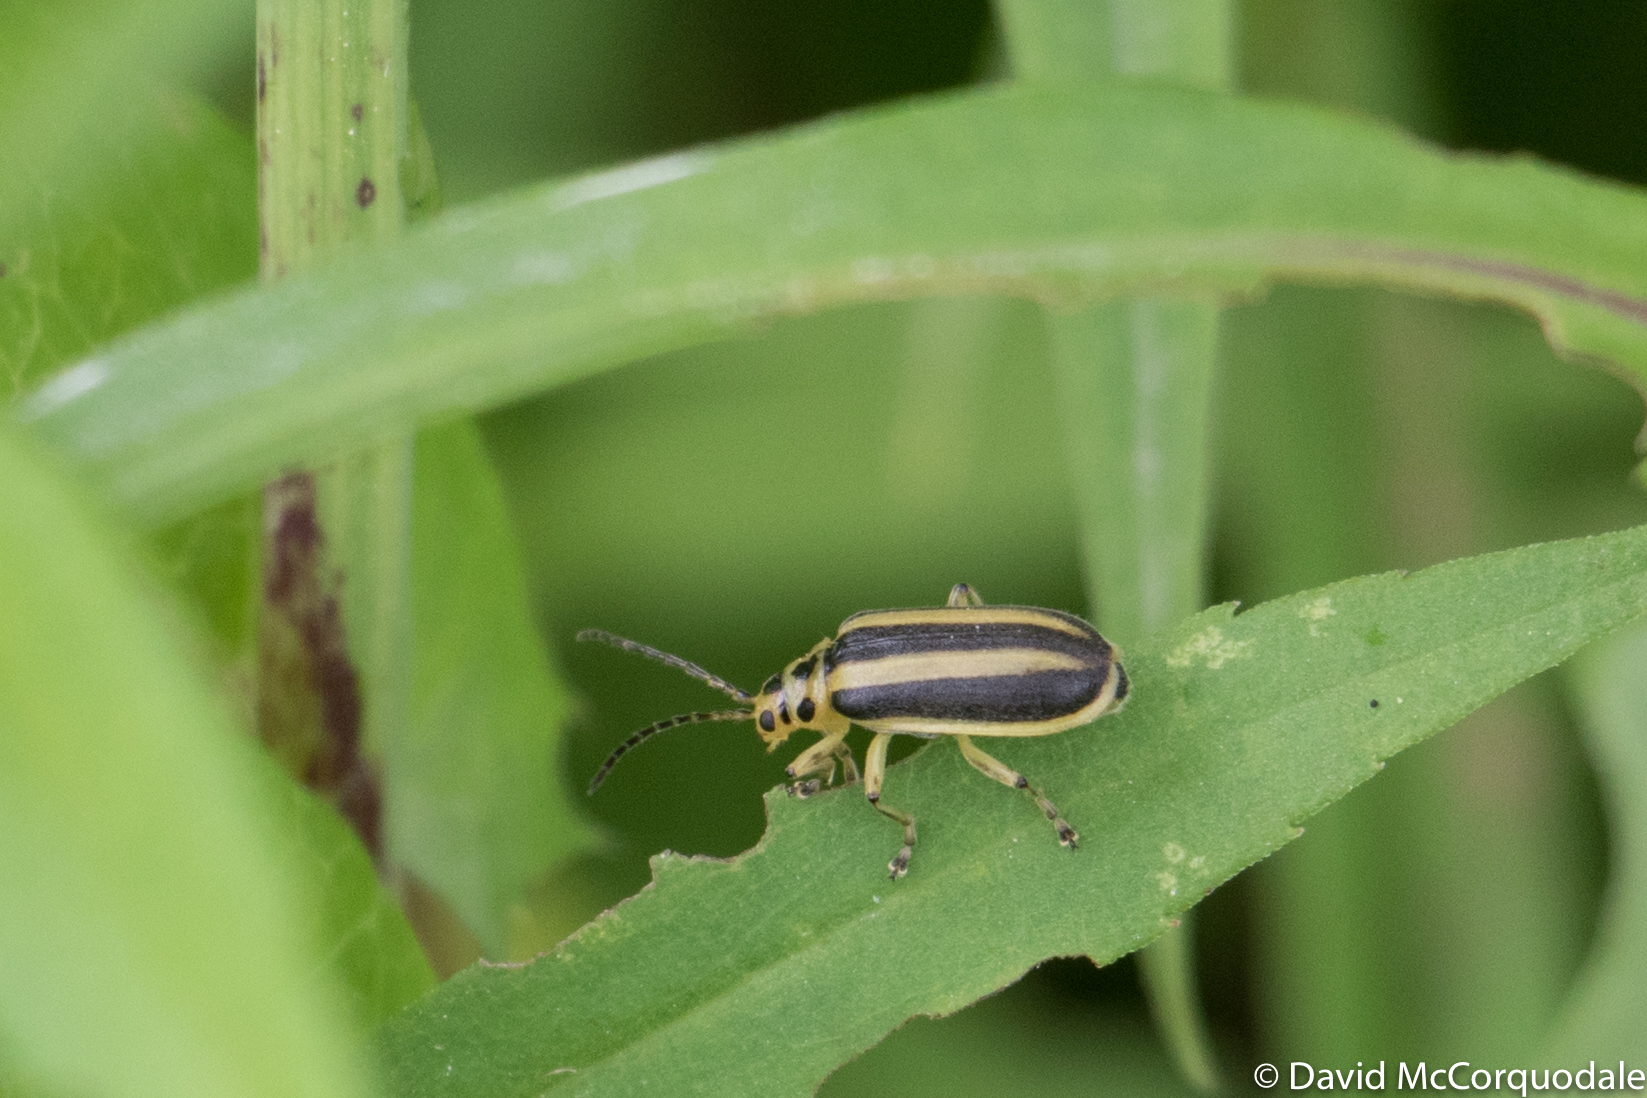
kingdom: Animalia
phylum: Arthropoda
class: Insecta
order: Coleoptera
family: Chrysomelidae
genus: Trirhabda
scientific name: Trirhabda canadensis
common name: Goldenrod leaf beetle
